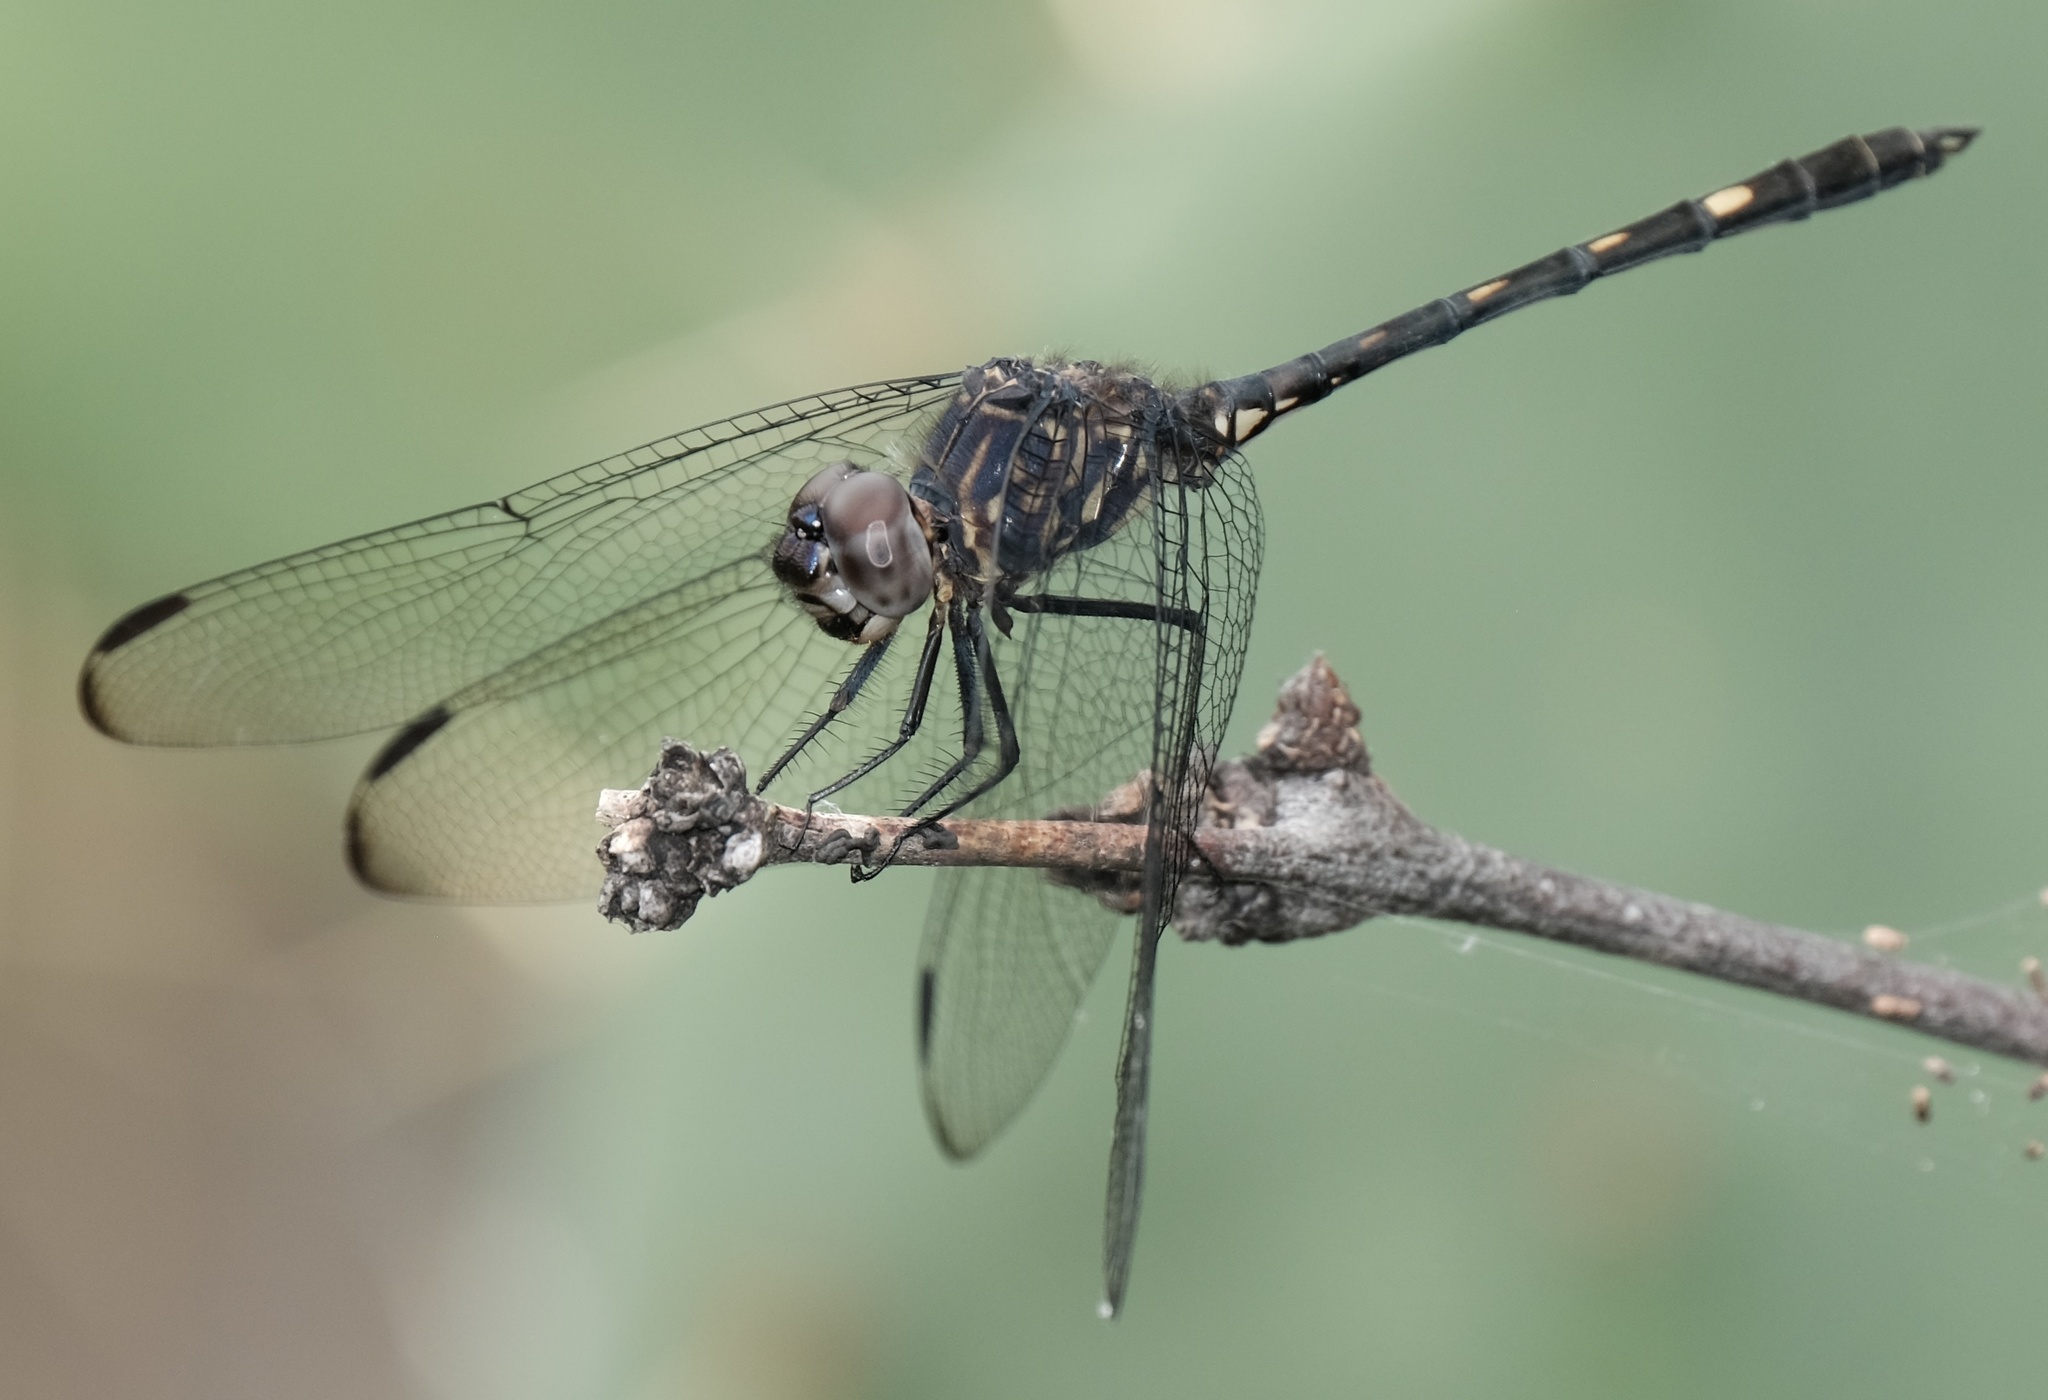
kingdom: Animalia
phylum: Arthropoda
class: Insecta
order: Odonata
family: Libellulidae
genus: Dythemis
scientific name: Dythemis nigrescens
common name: Black setwing
